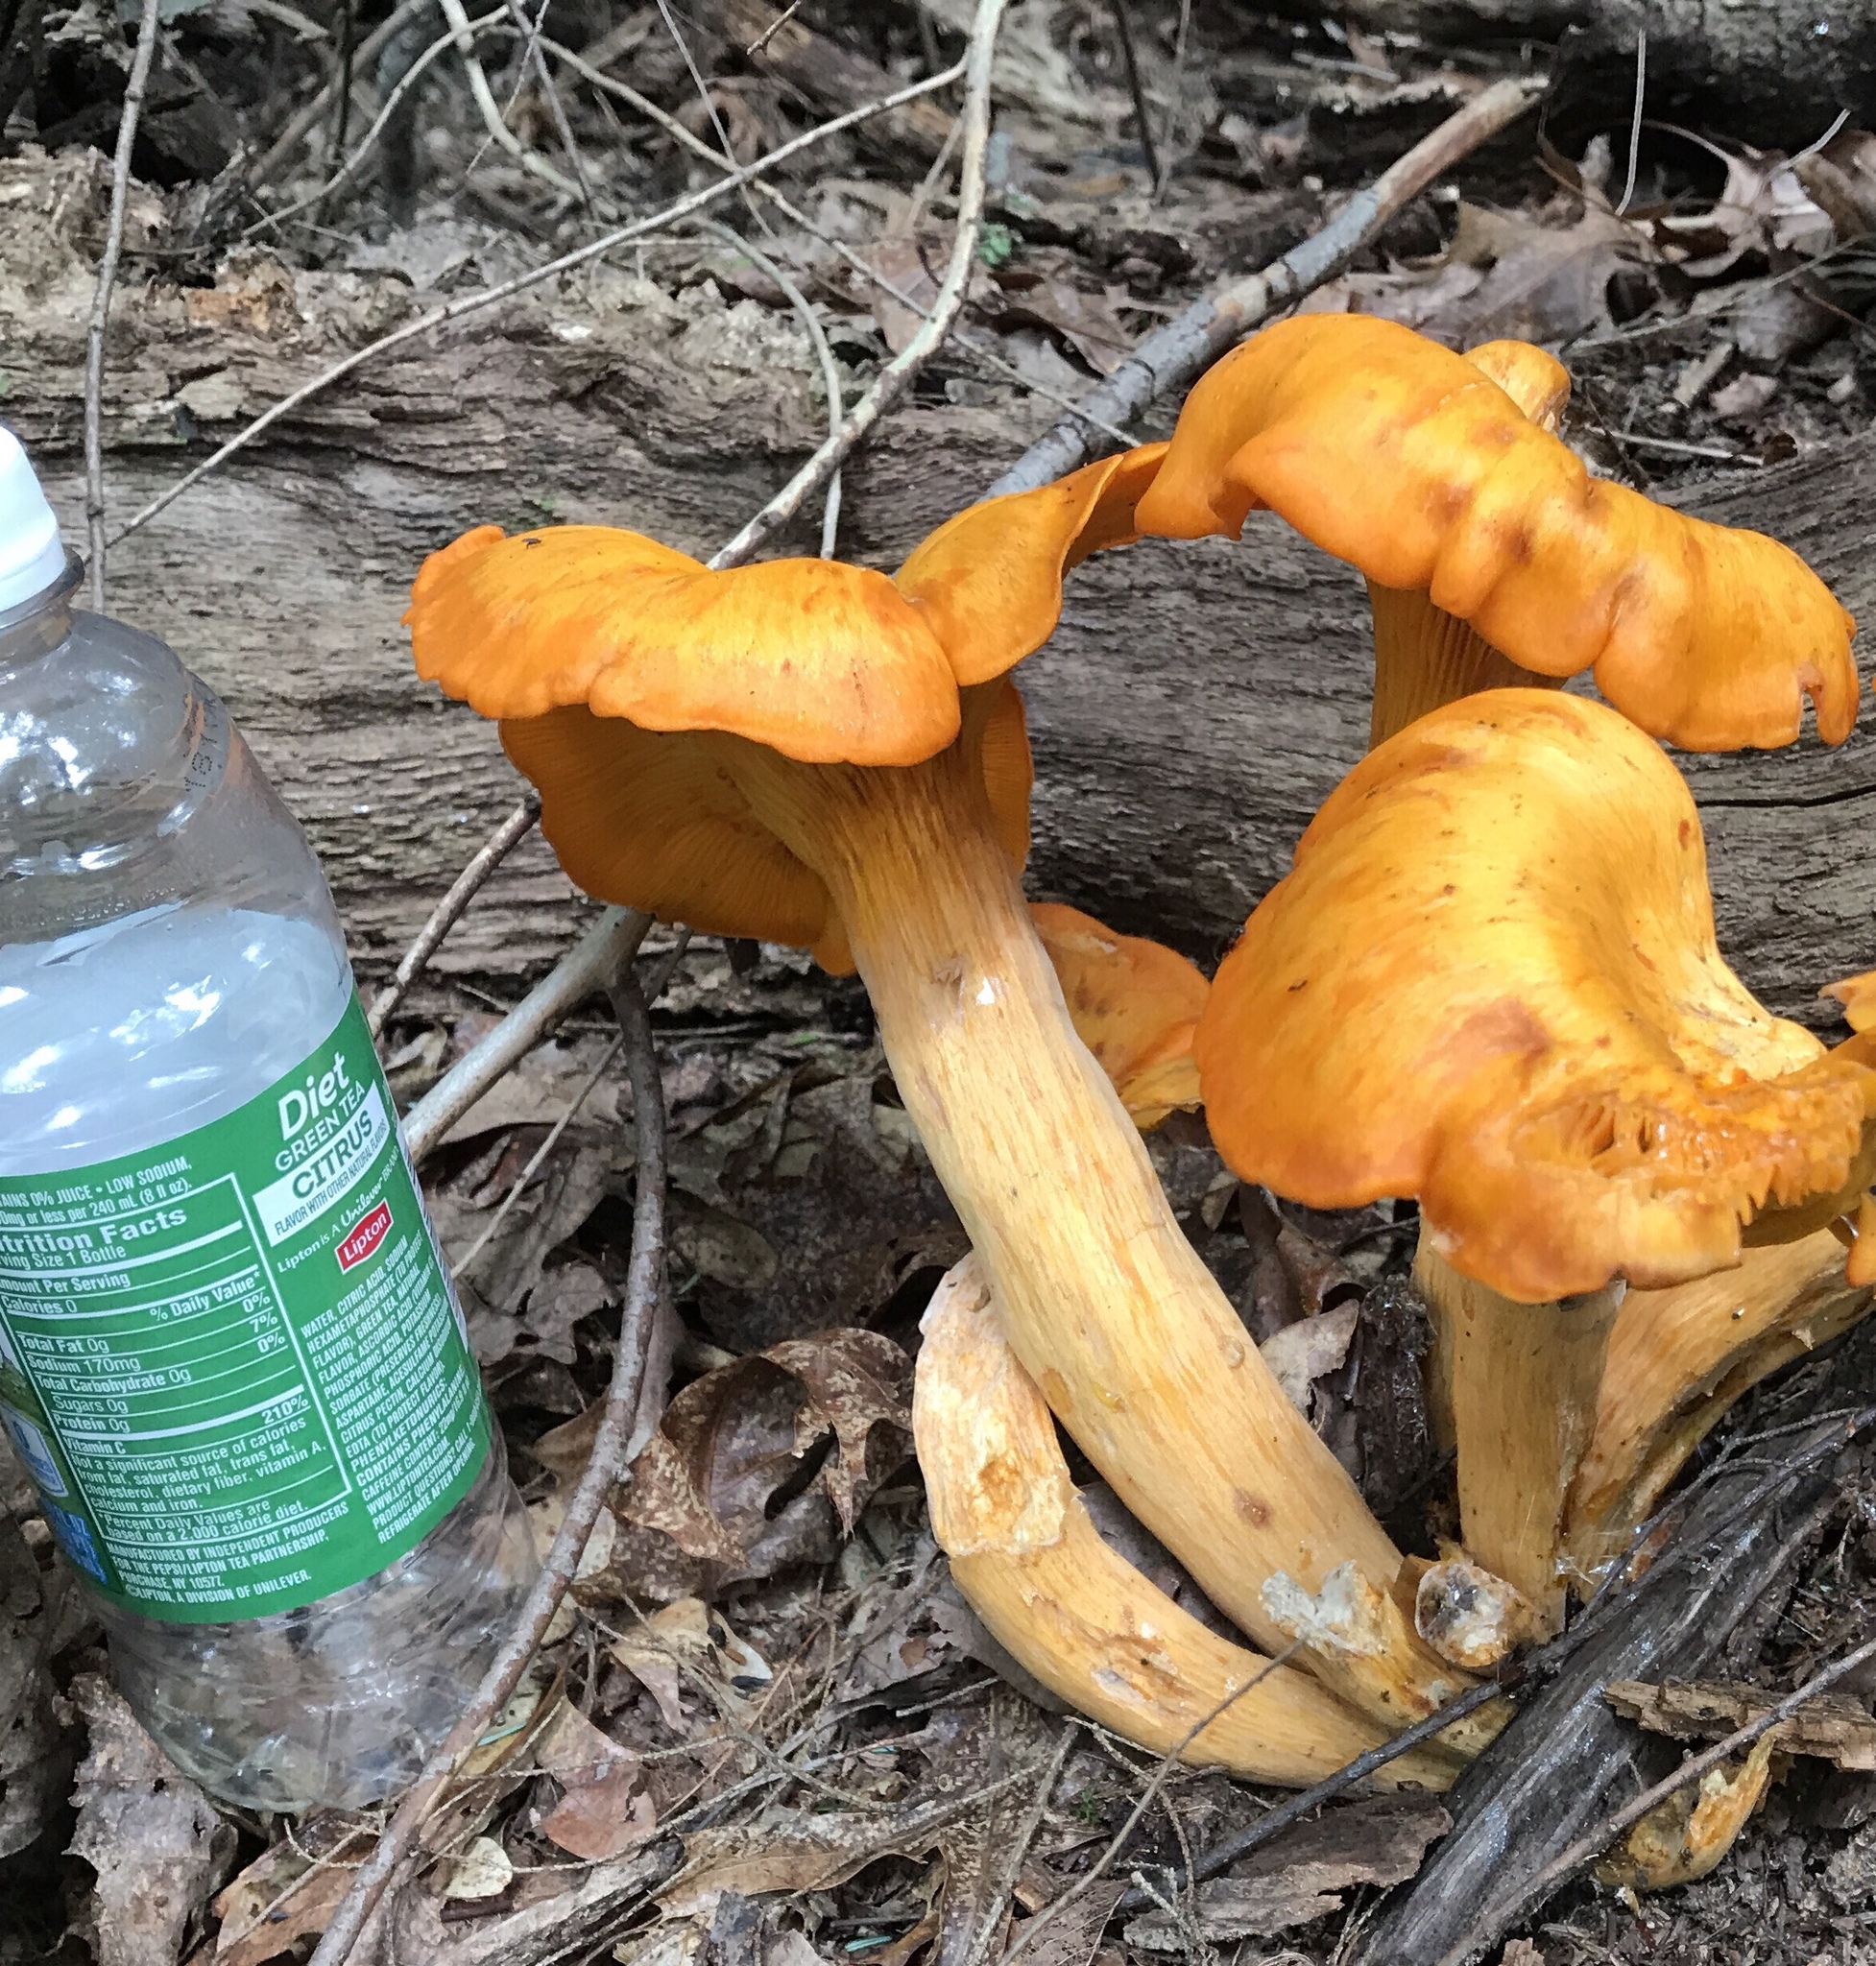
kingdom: Fungi
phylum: Basidiomycota
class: Agaricomycetes
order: Agaricales
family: Omphalotaceae
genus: Omphalotus
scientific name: Omphalotus illudens
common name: Jack o lantern
